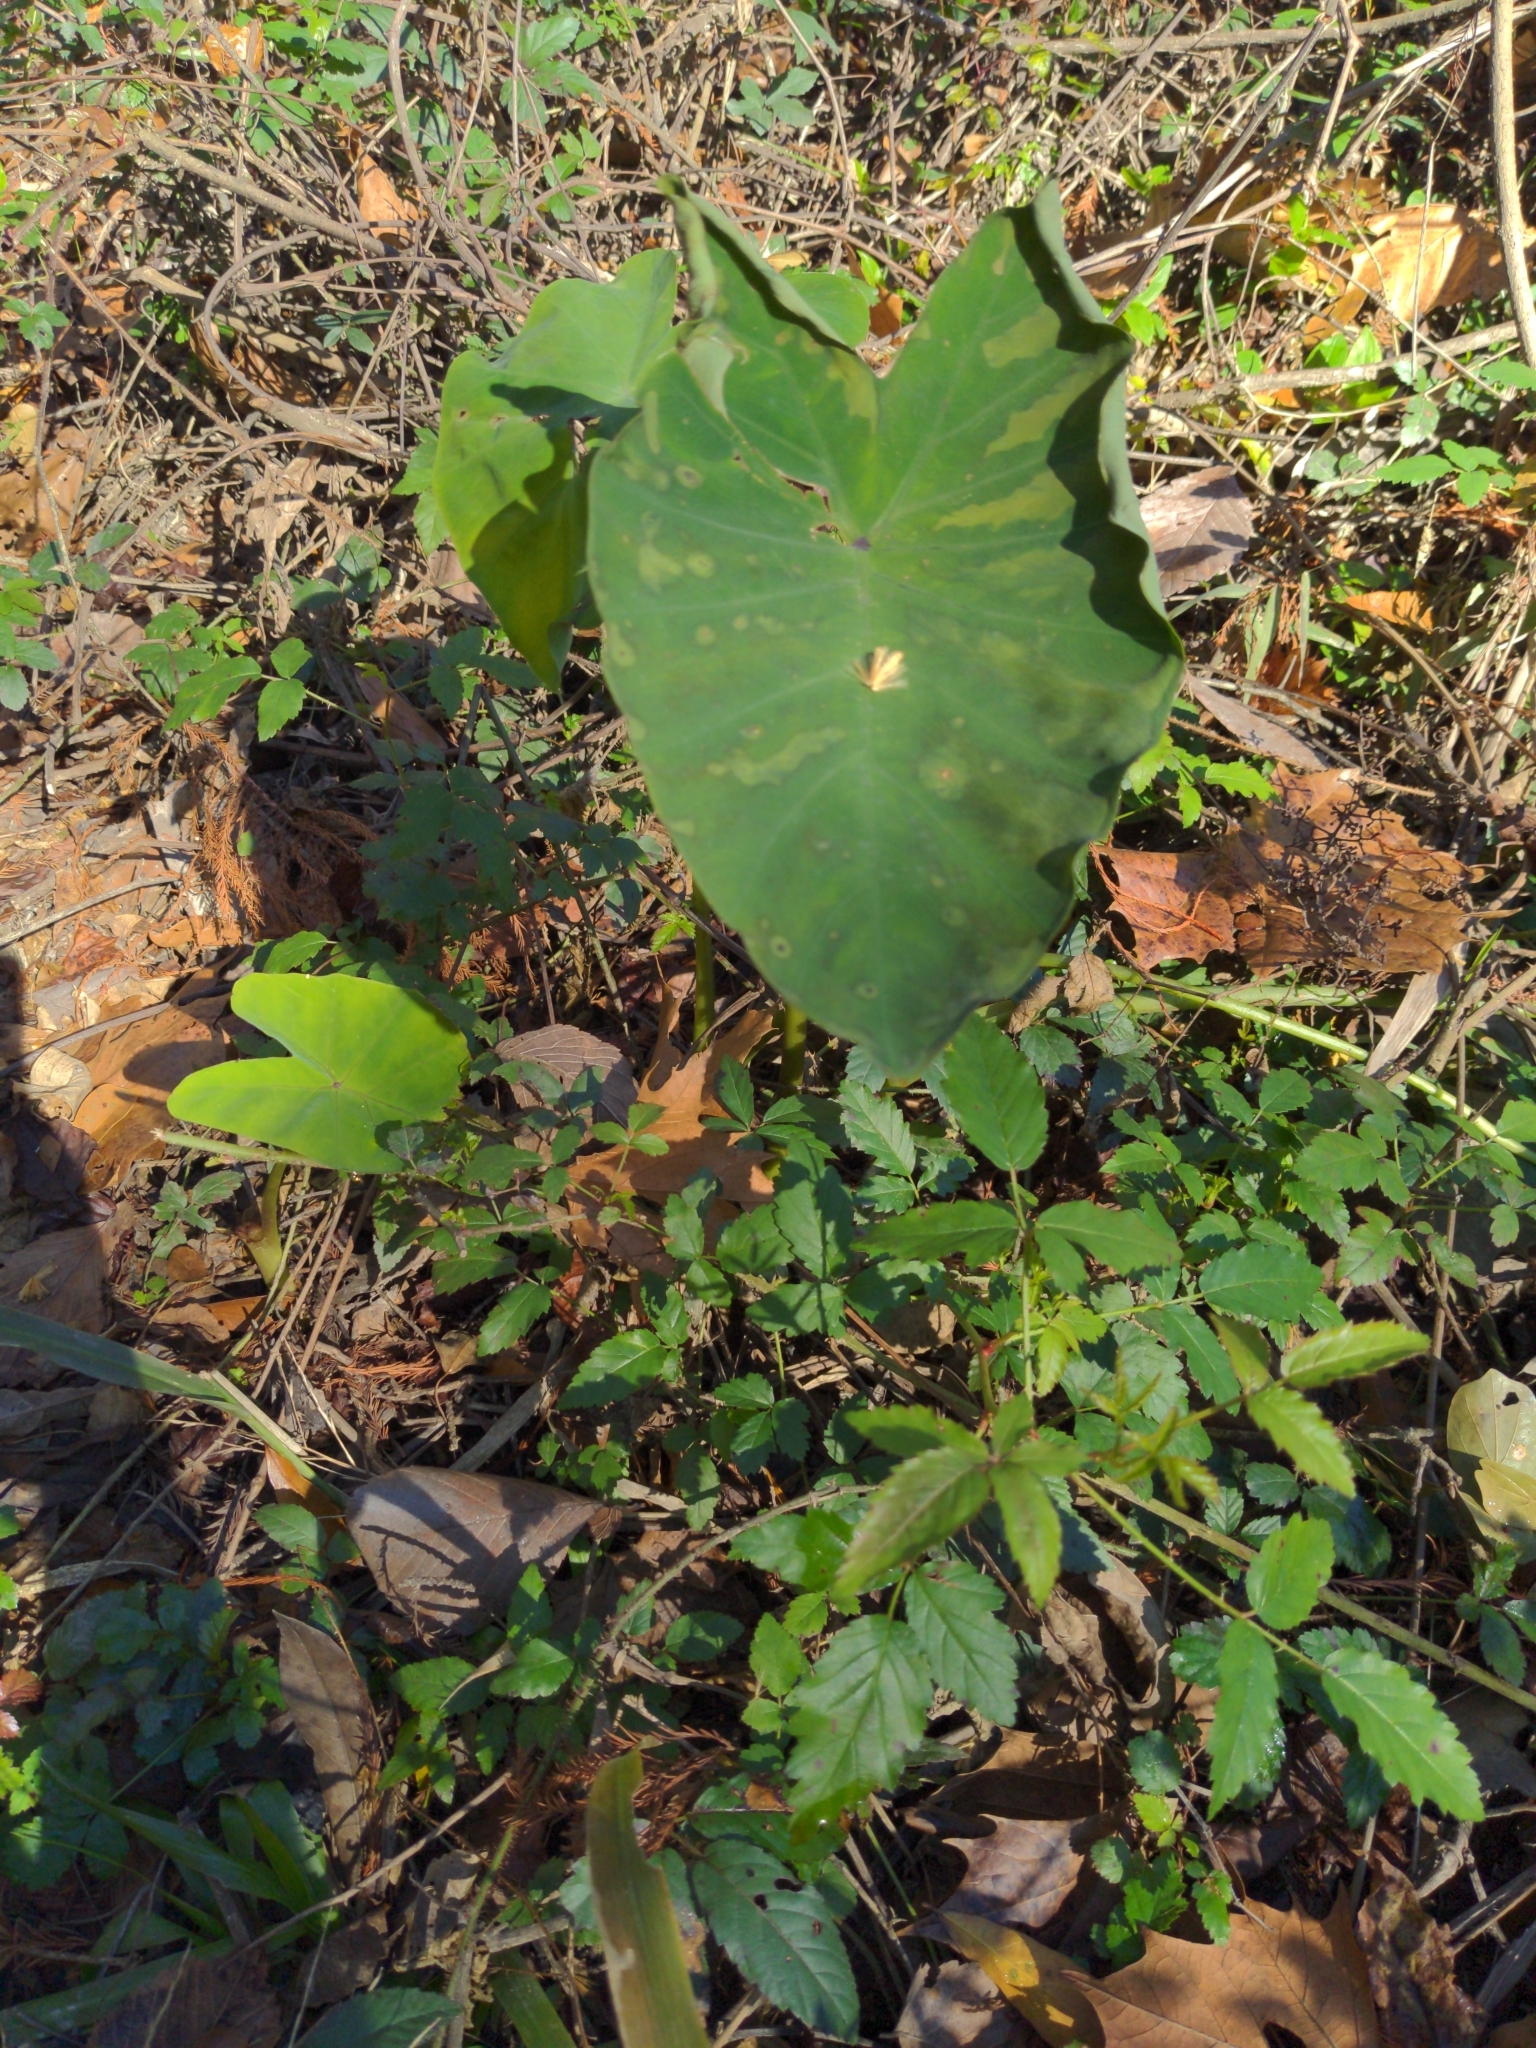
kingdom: Plantae
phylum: Tracheophyta
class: Liliopsida
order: Alismatales
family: Araceae
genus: Colocasia
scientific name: Colocasia esculenta
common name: Taro
